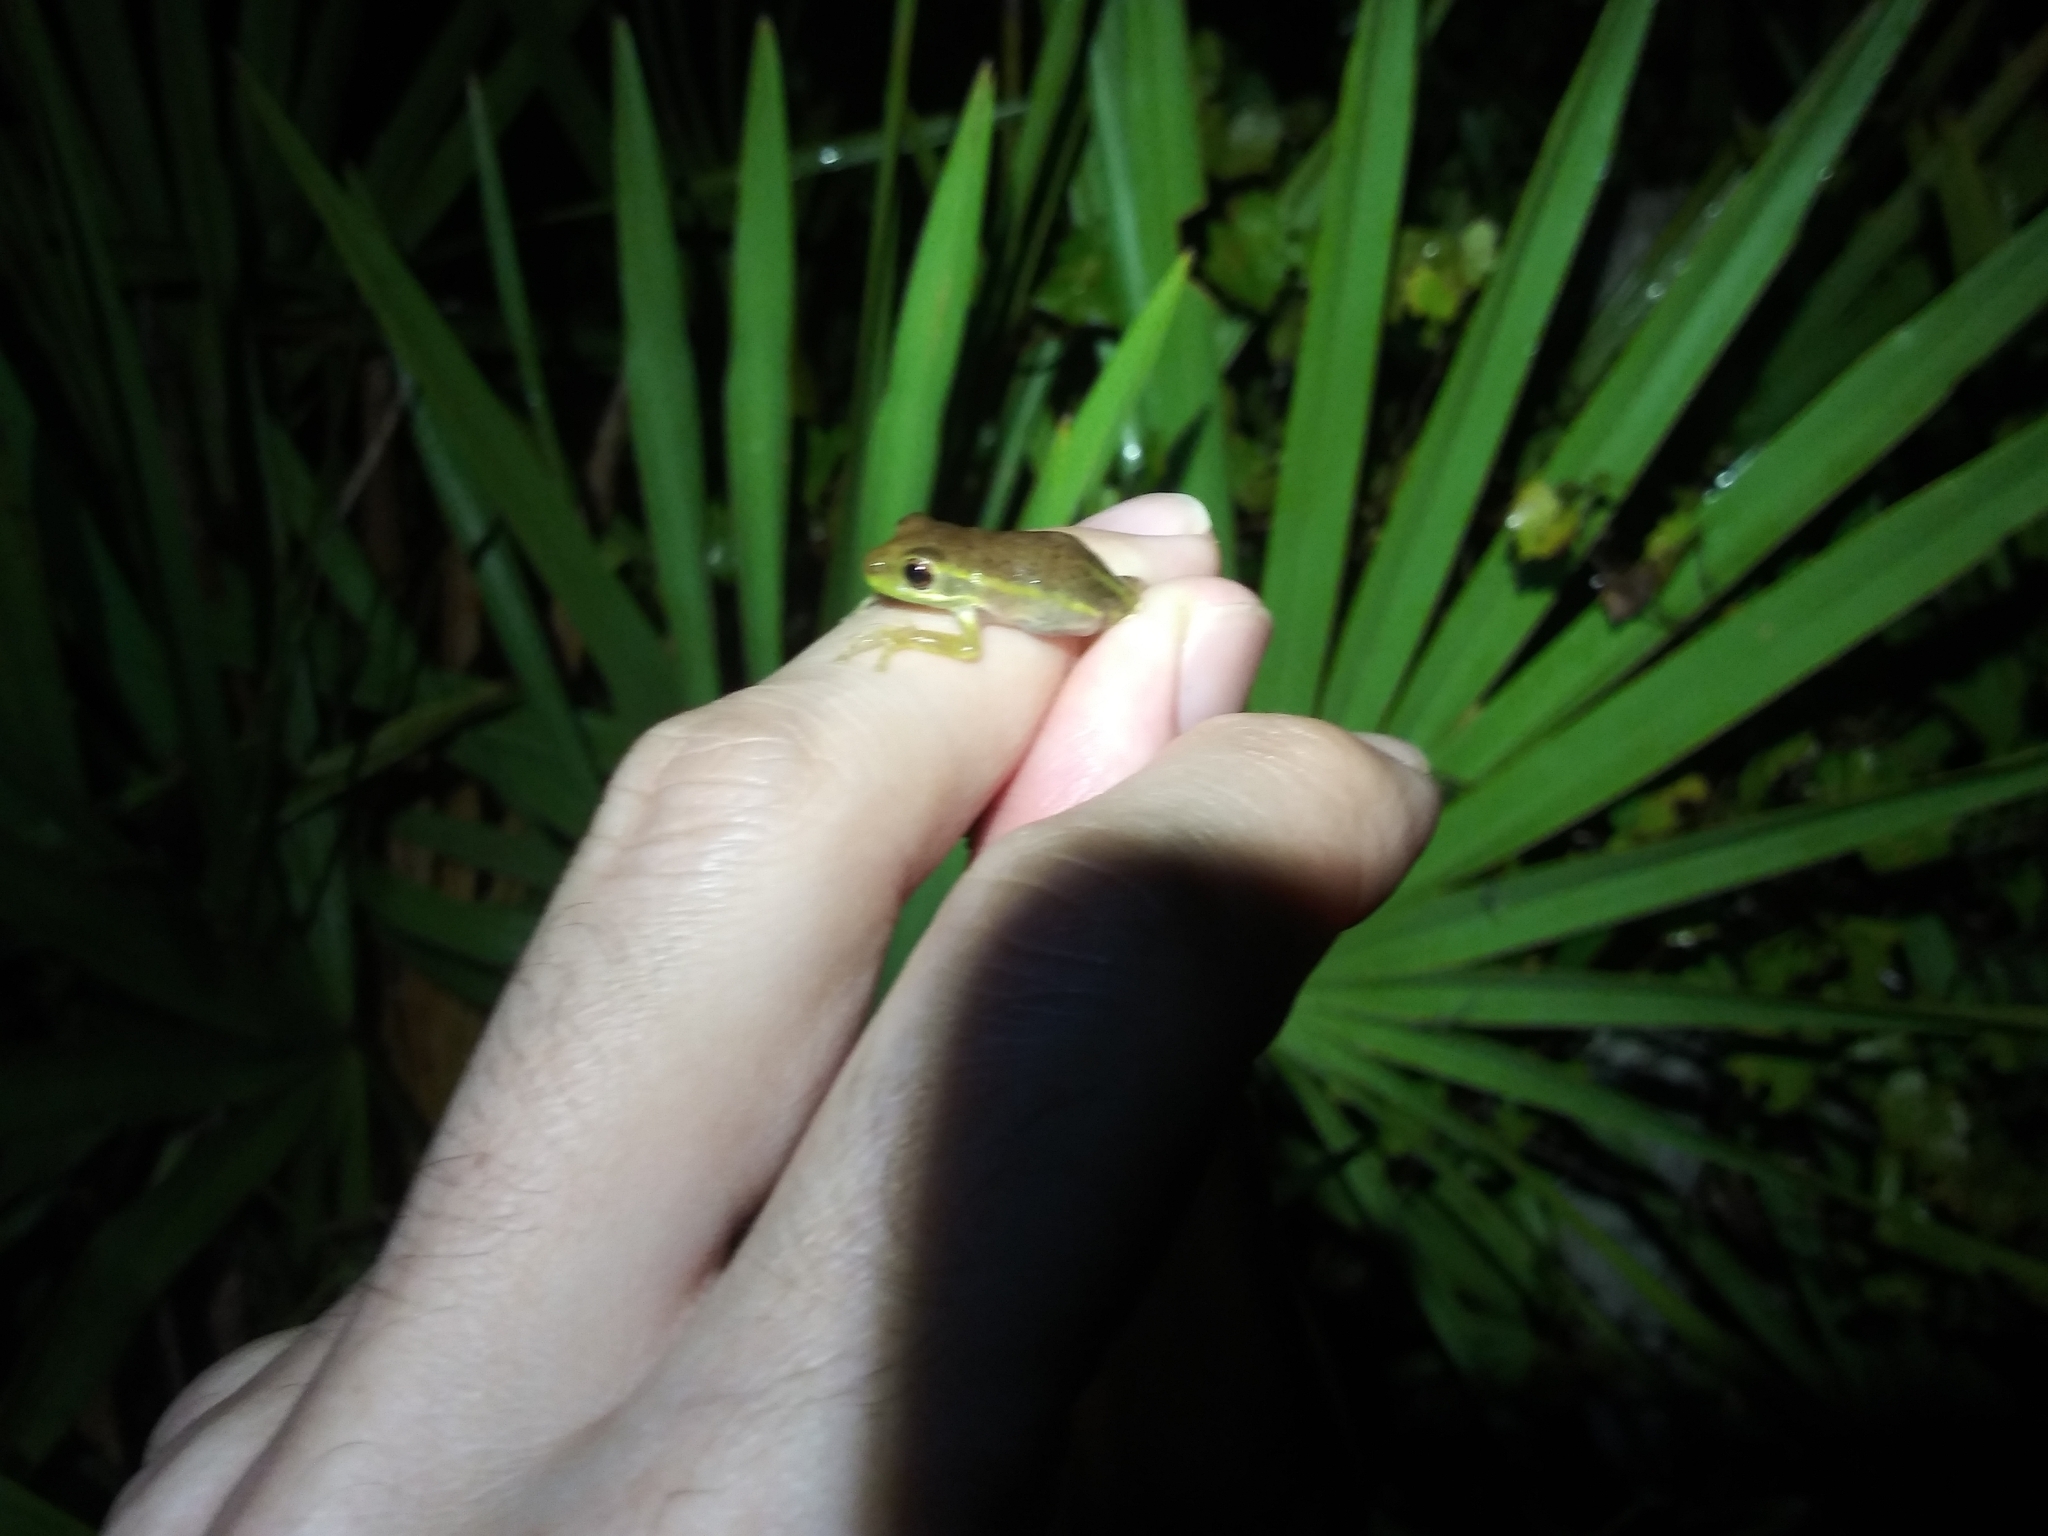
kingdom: Animalia
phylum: Chordata
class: Amphibia
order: Anura
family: Hylidae
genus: Osteopilus
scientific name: Osteopilus septentrionalis
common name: Cuban treefrog
